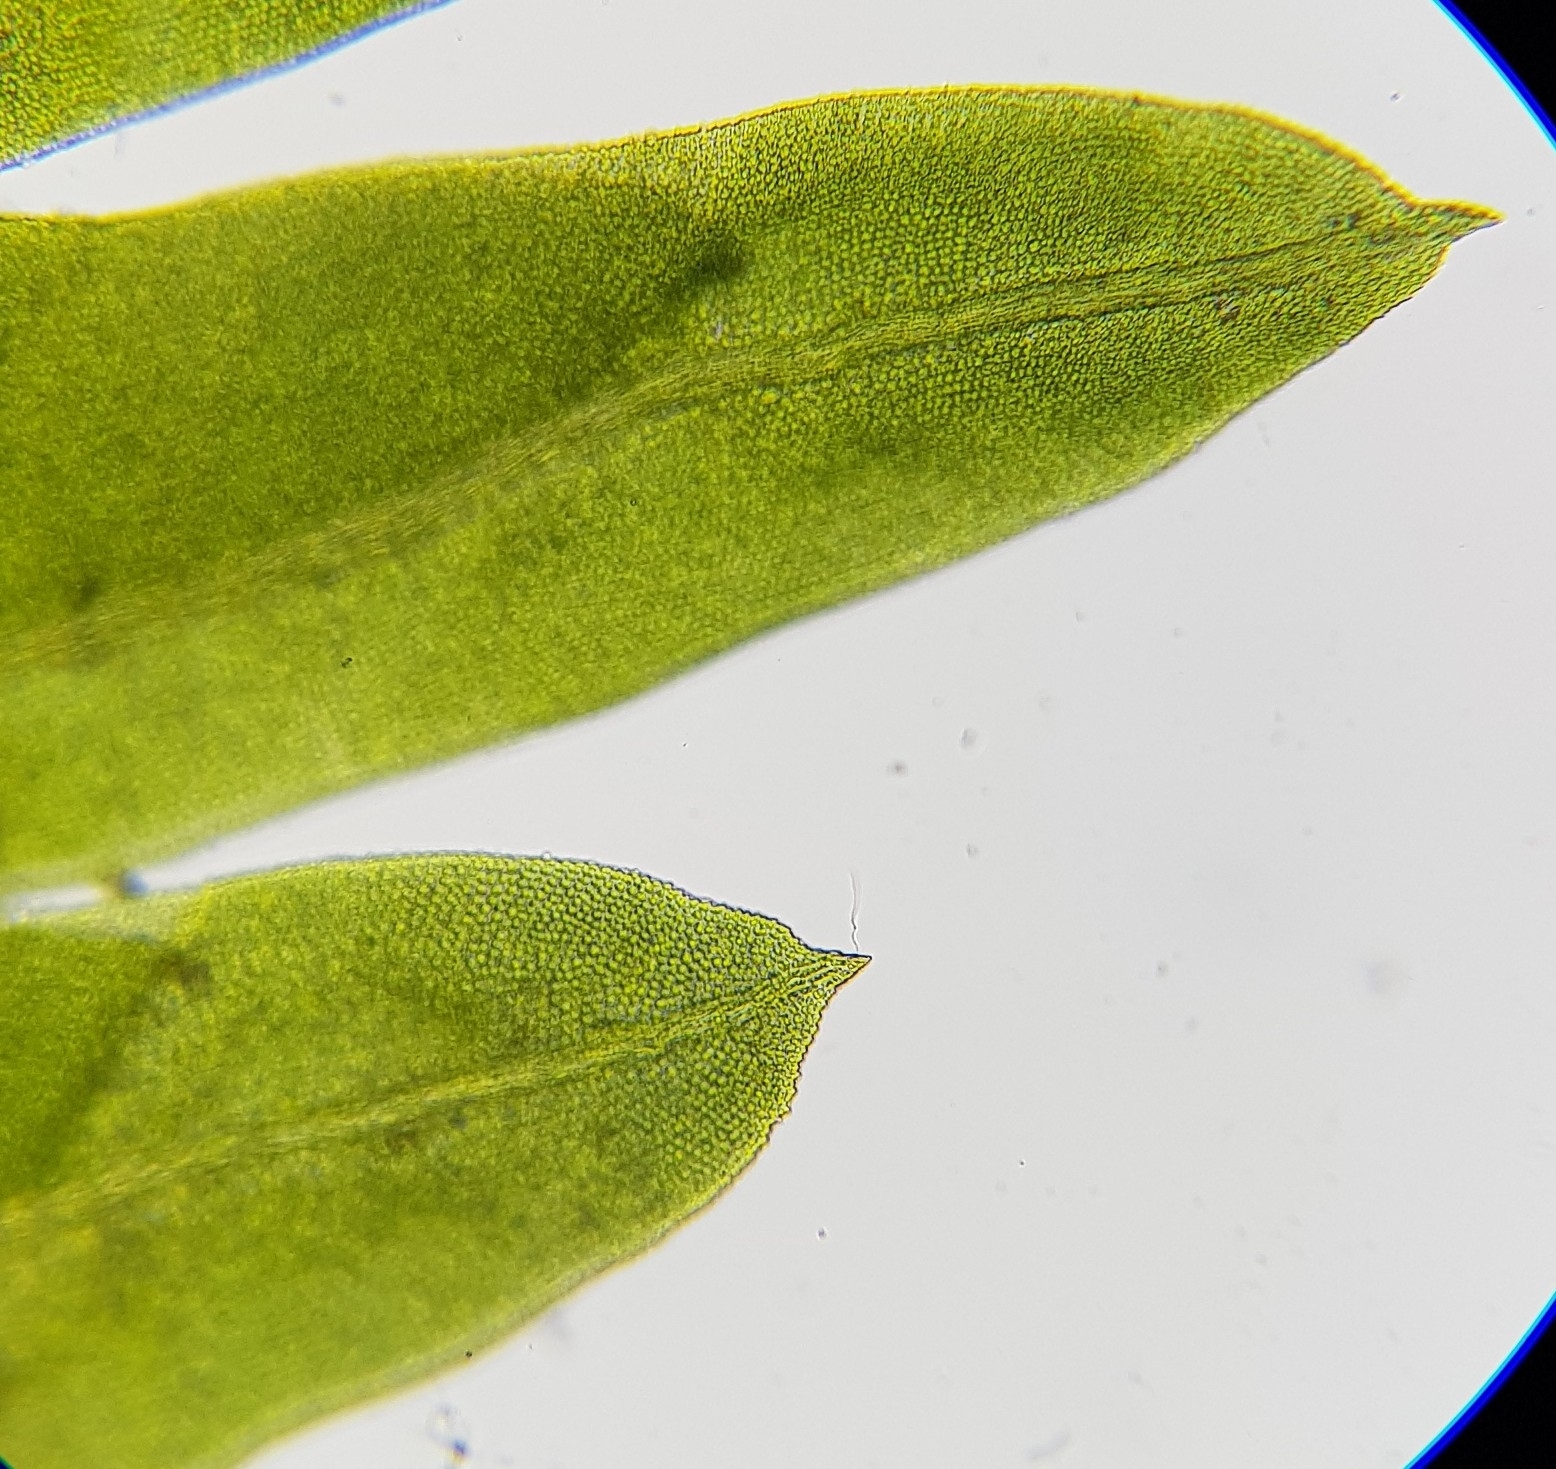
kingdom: Plantae
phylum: Bryophyta
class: Bryopsida
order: Dicranales
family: Fissidentaceae
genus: Fissidens
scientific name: Fissidens taxifolius
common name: Yew-leaved pocket moss
